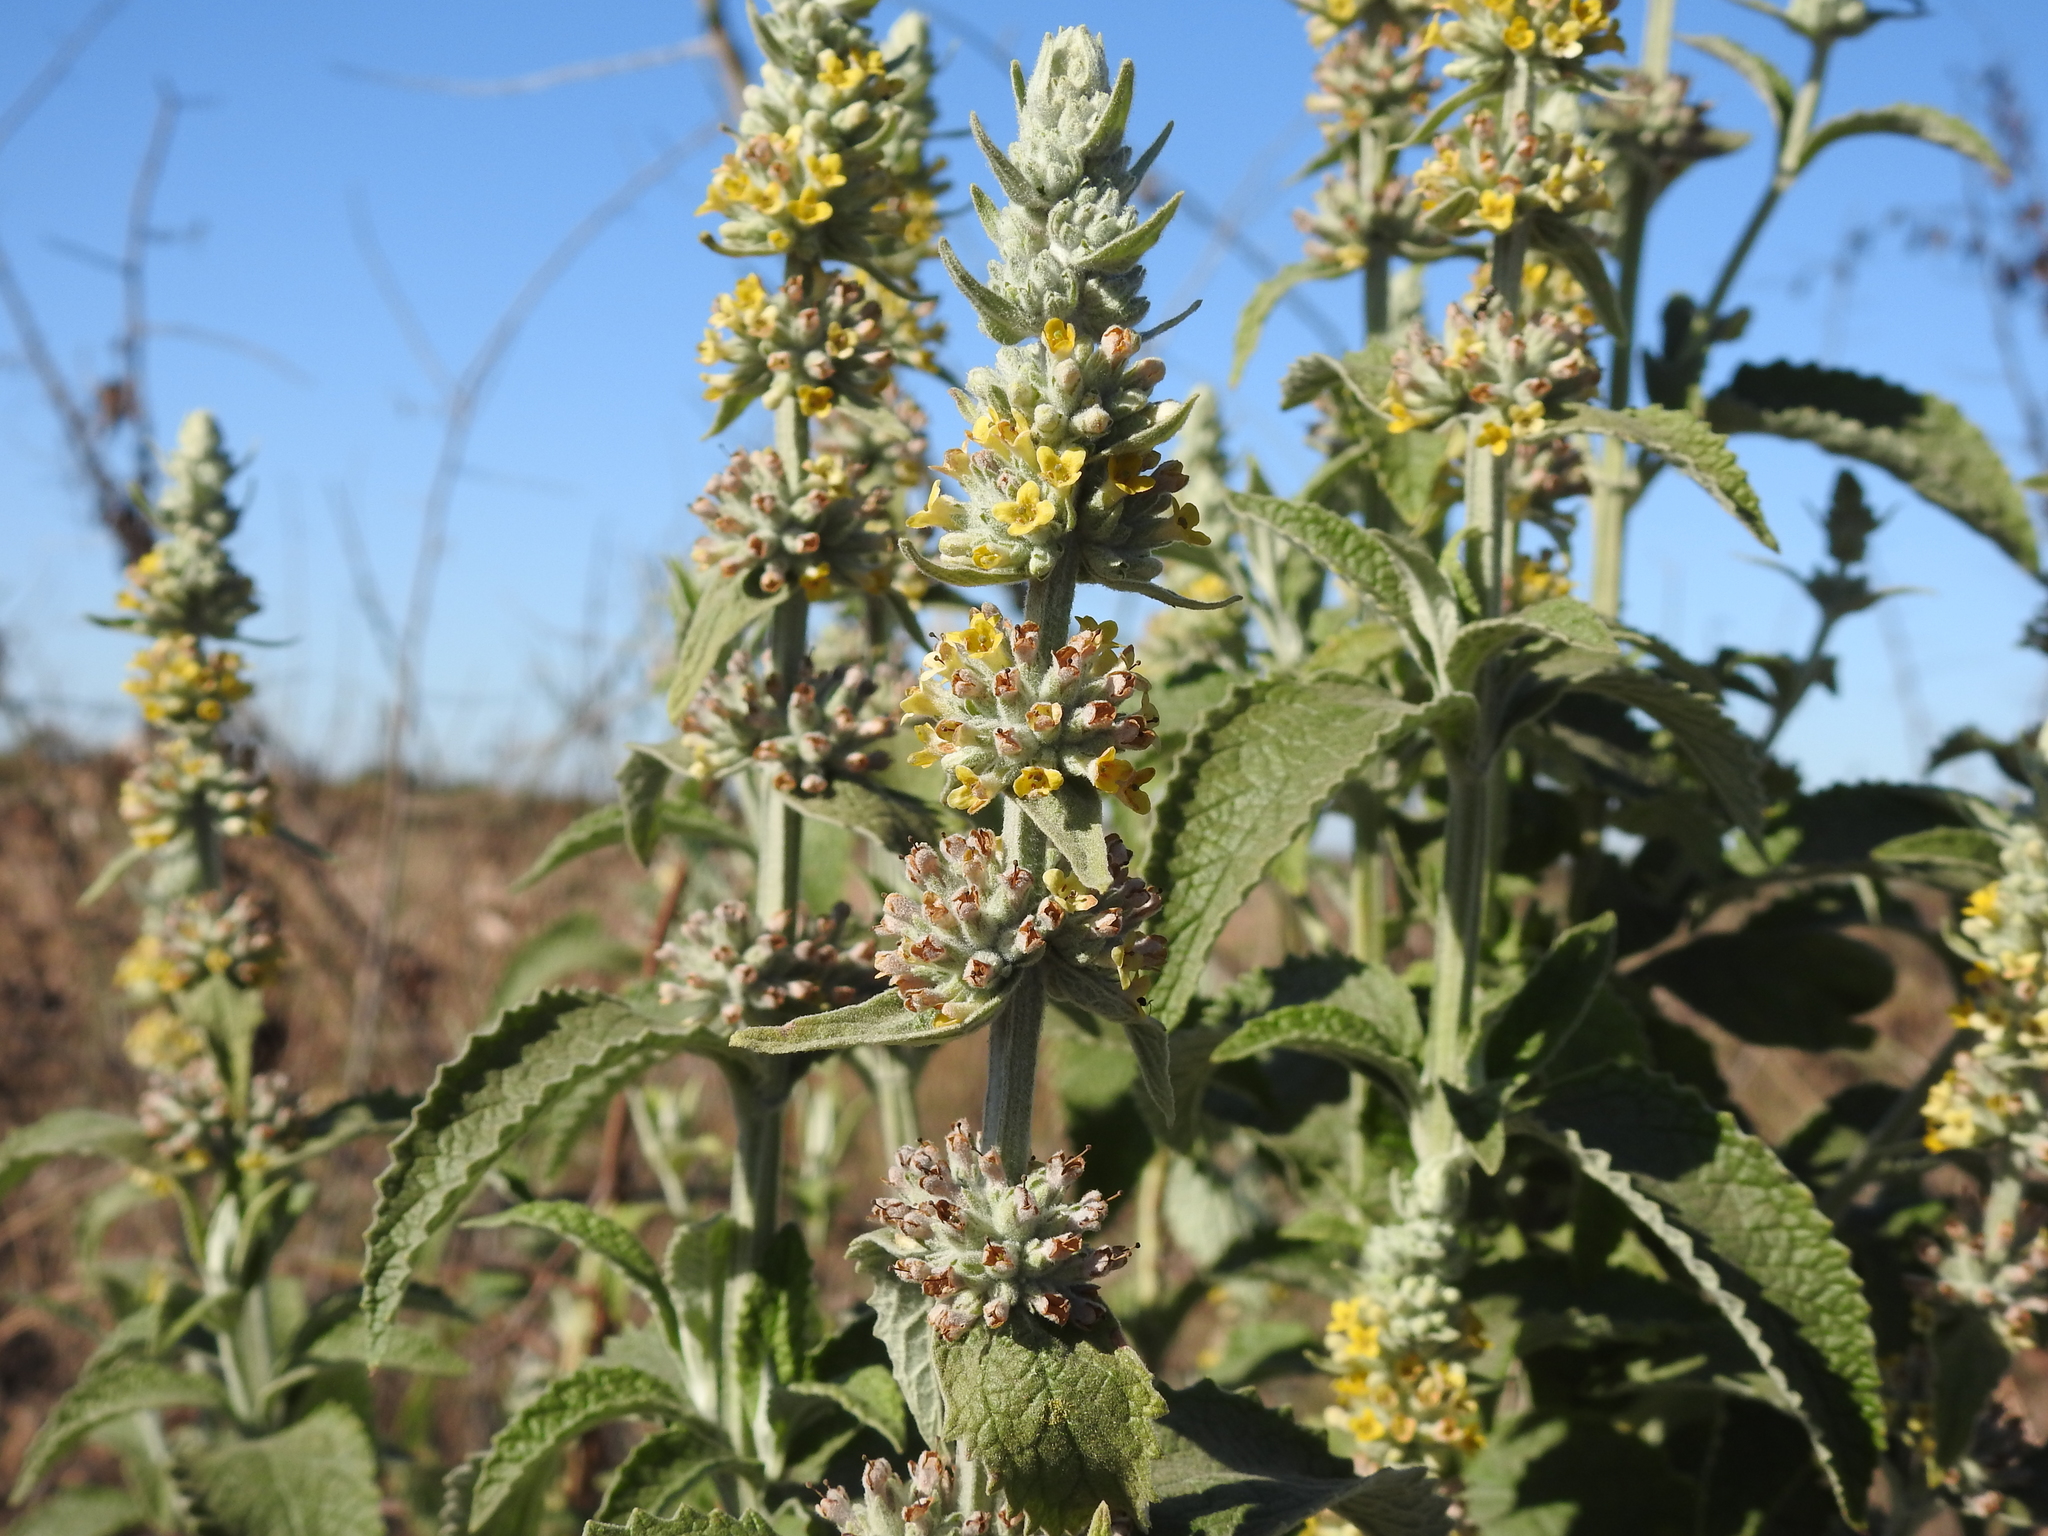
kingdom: Plantae
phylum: Tracheophyta
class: Magnoliopsida
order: Lamiales
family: Scrophulariaceae
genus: Buddleja
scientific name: Buddleja stachyoides
